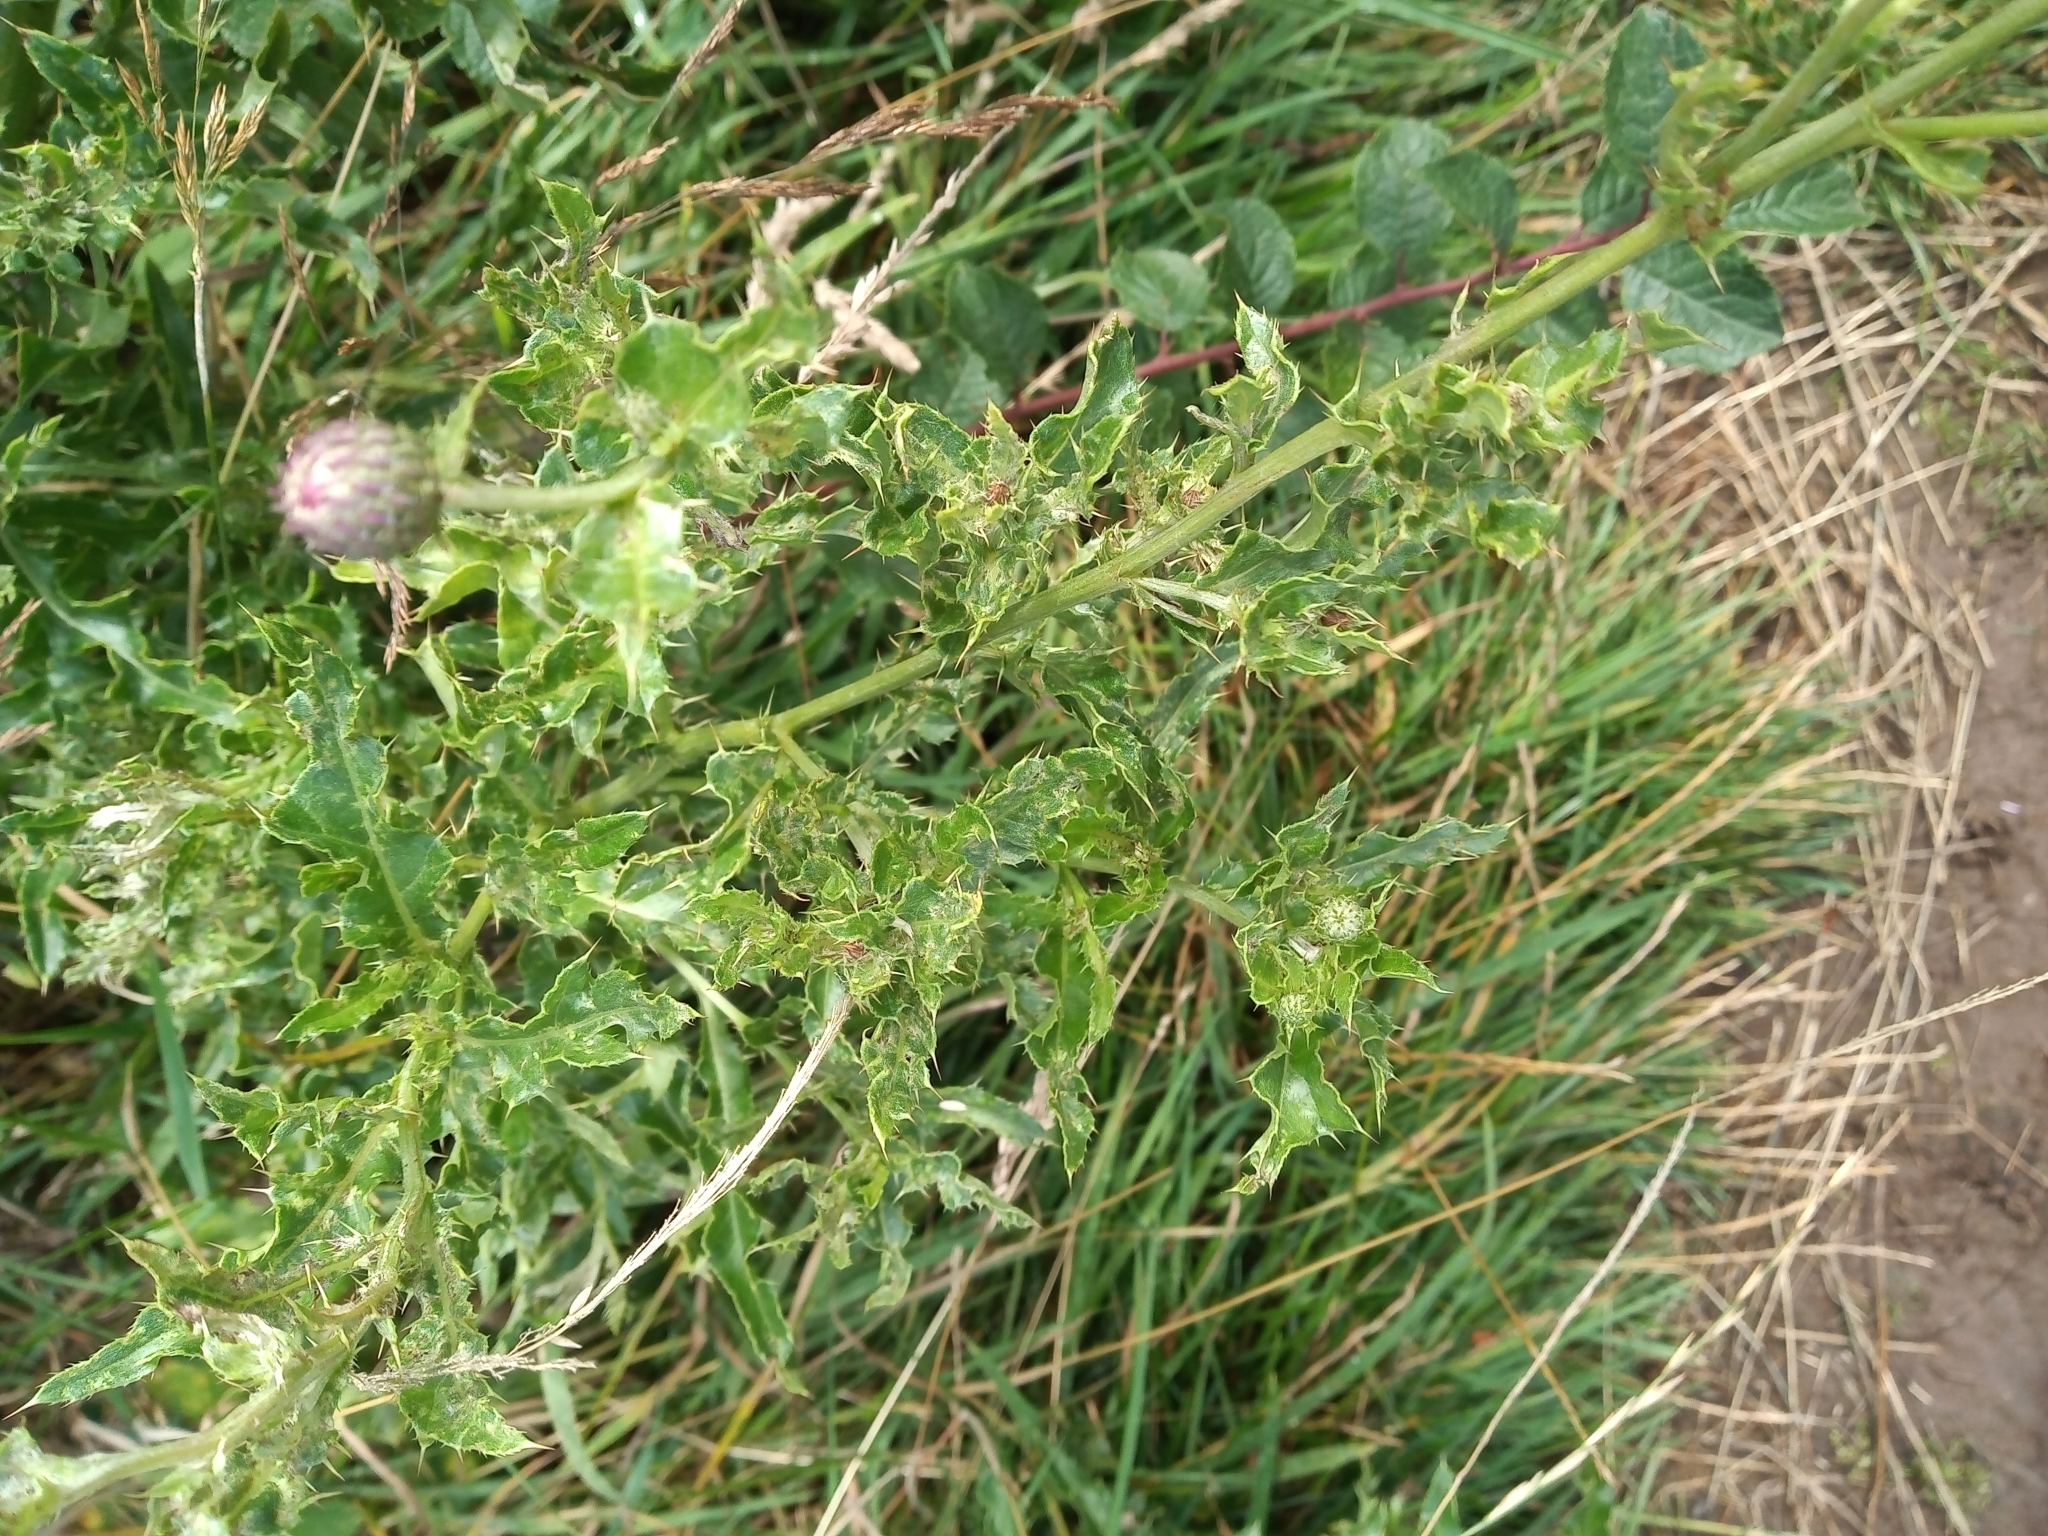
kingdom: Plantae
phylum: Tracheophyta
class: Magnoliopsida
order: Asterales
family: Asteraceae
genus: Cirsium
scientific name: Cirsium arvense
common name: Creeping thistle
